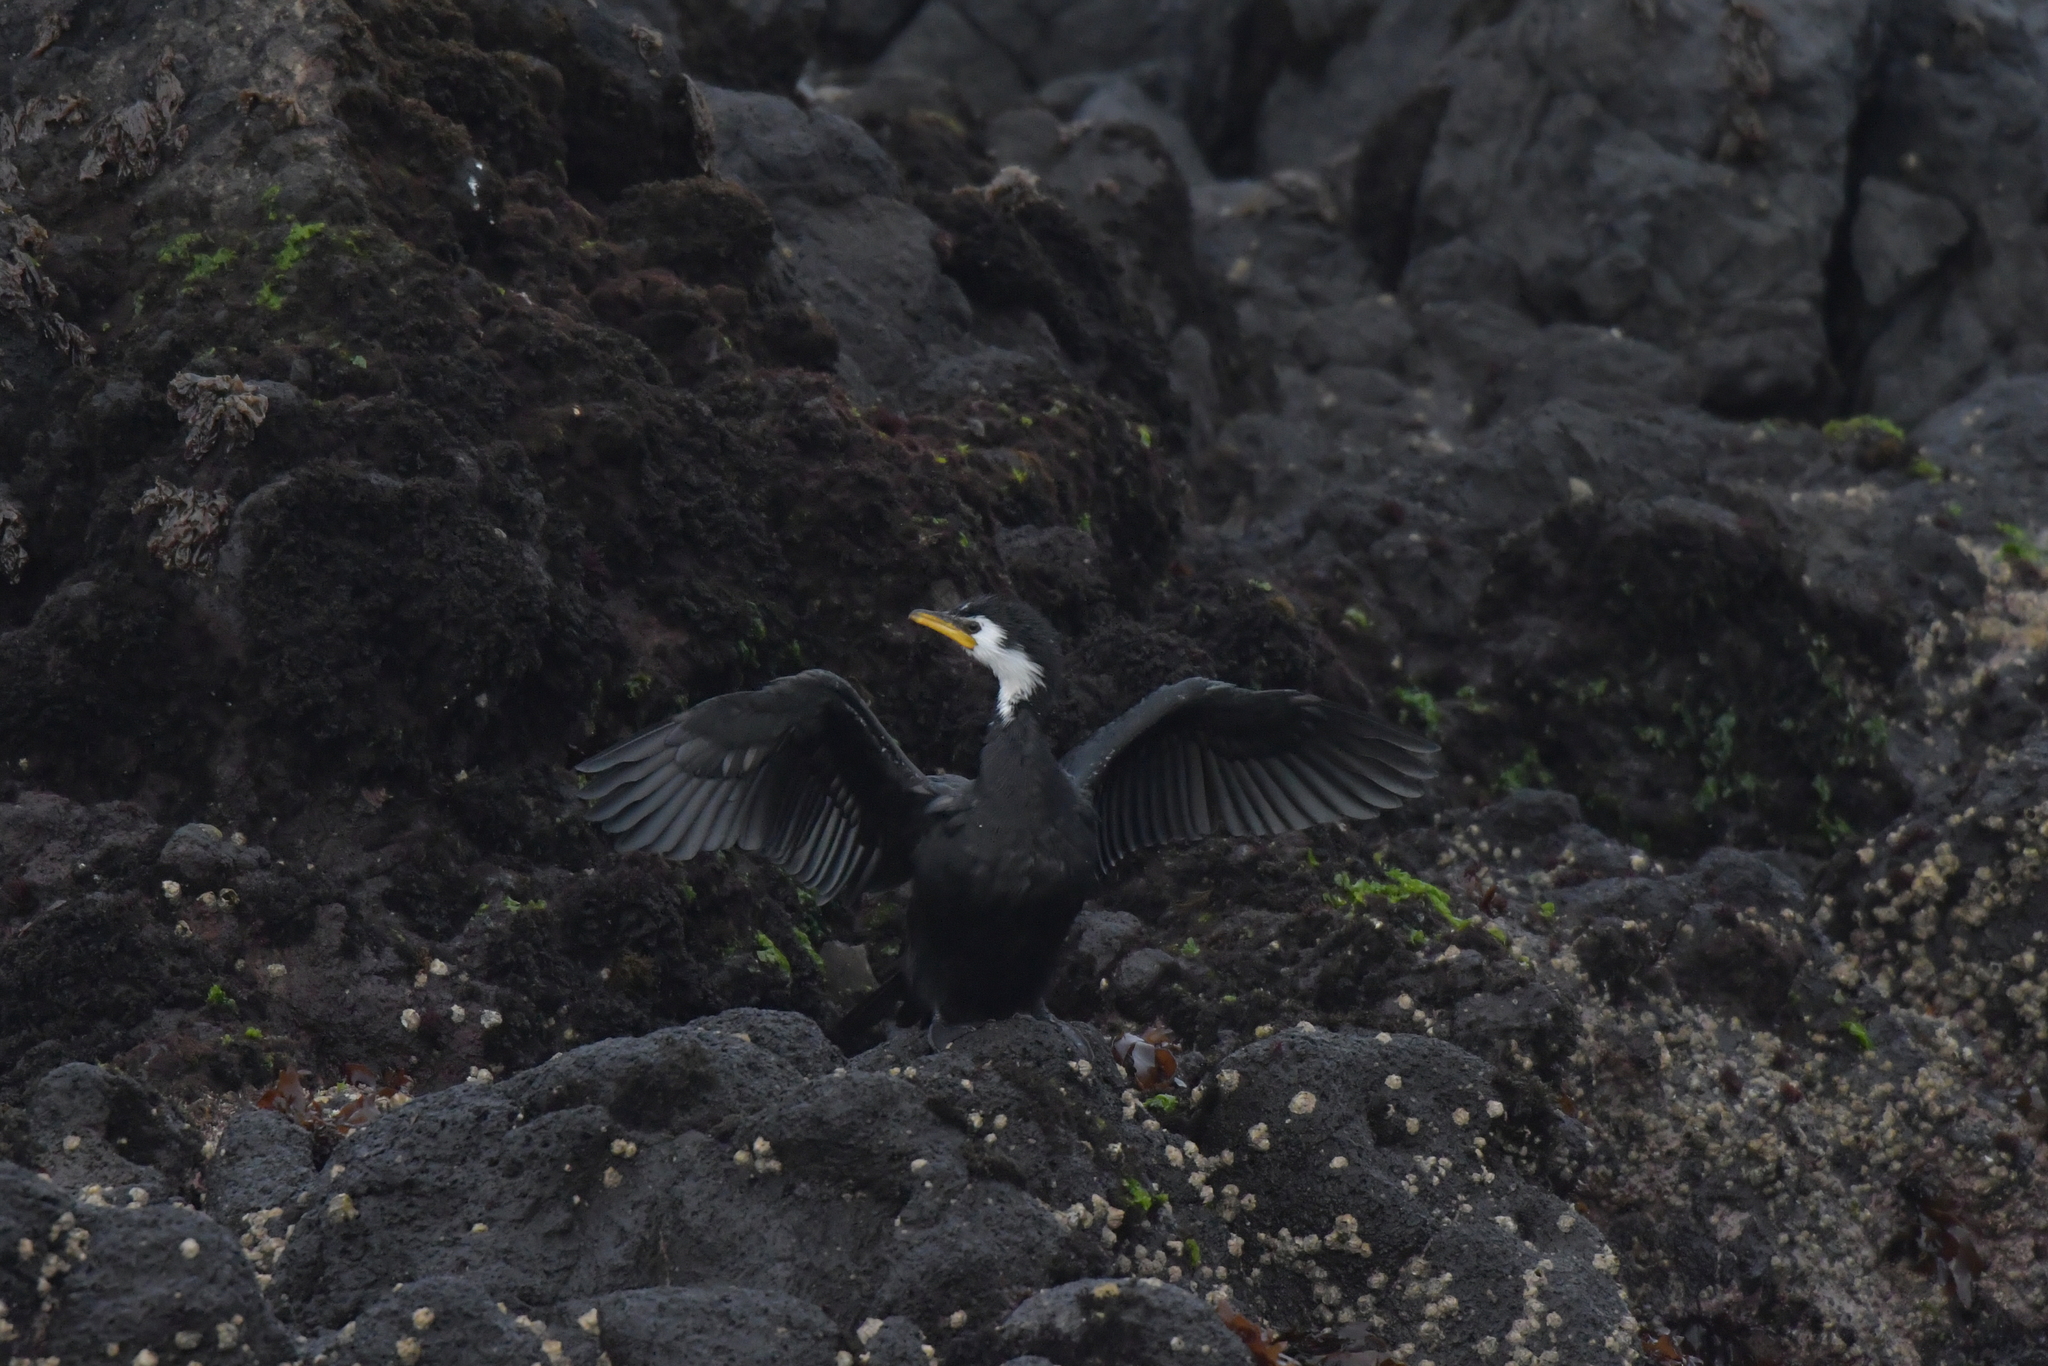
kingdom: Animalia
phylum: Chordata
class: Aves
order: Suliformes
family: Phalacrocoracidae
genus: Microcarbo
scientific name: Microcarbo melanoleucos
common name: Little pied cormorant
